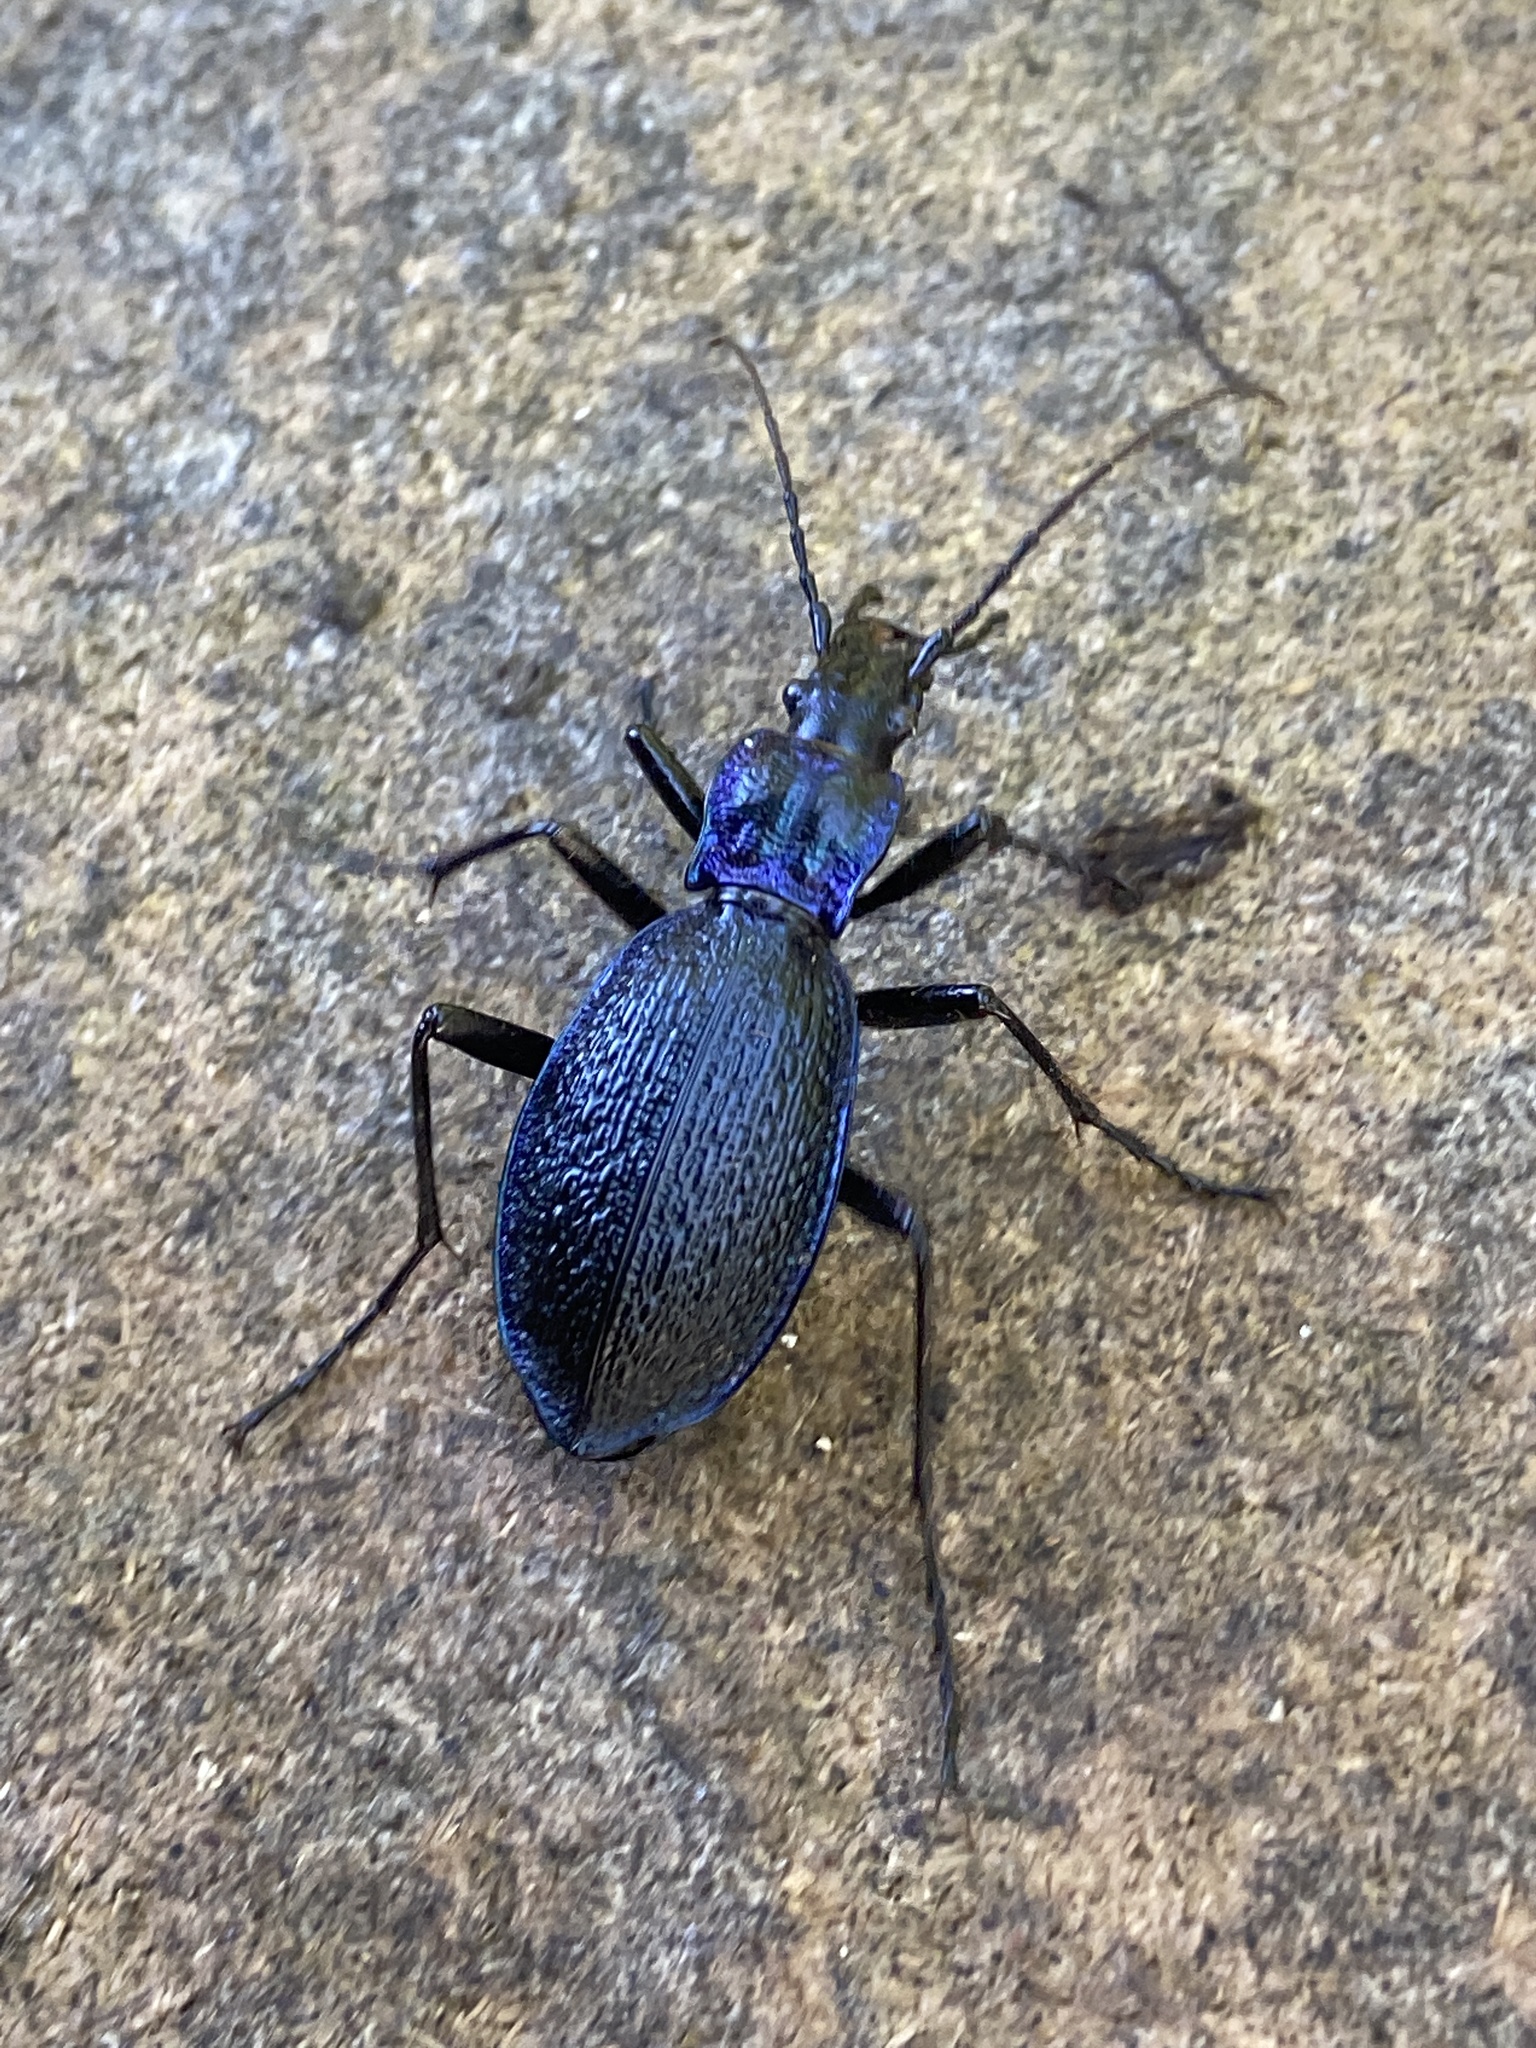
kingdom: Animalia
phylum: Arthropoda
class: Insecta
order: Coleoptera
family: Carabidae
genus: Carabus
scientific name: Carabus intricatus
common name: Blue ground beetle
